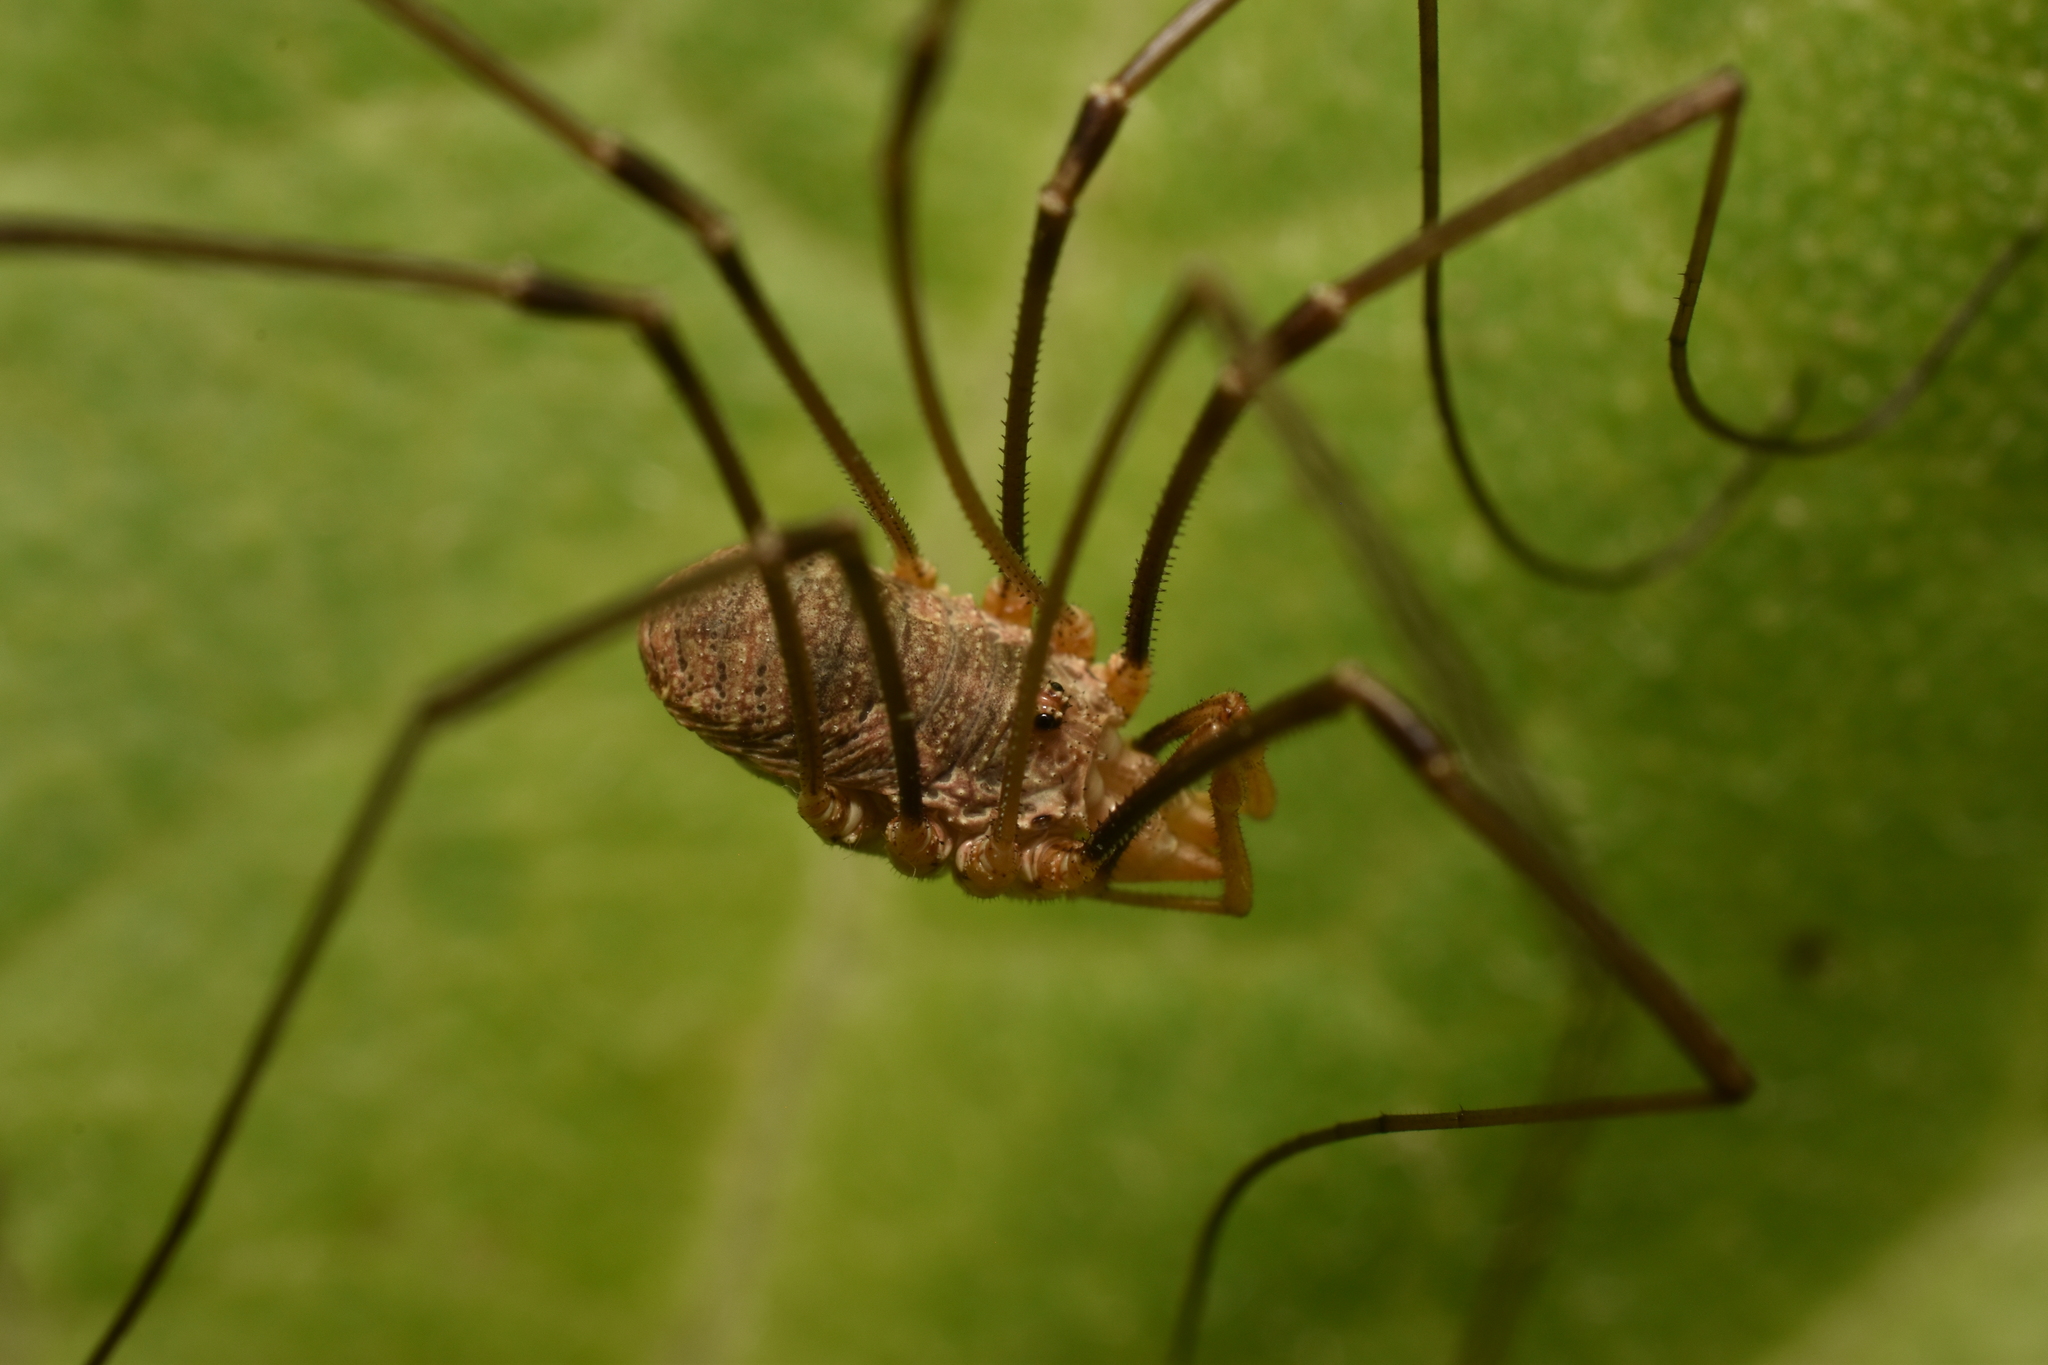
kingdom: Animalia
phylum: Arthropoda
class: Arachnida
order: Opiliones
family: Phalangiidae
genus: Phalangium
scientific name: Phalangium opilio
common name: Daddy longleg
